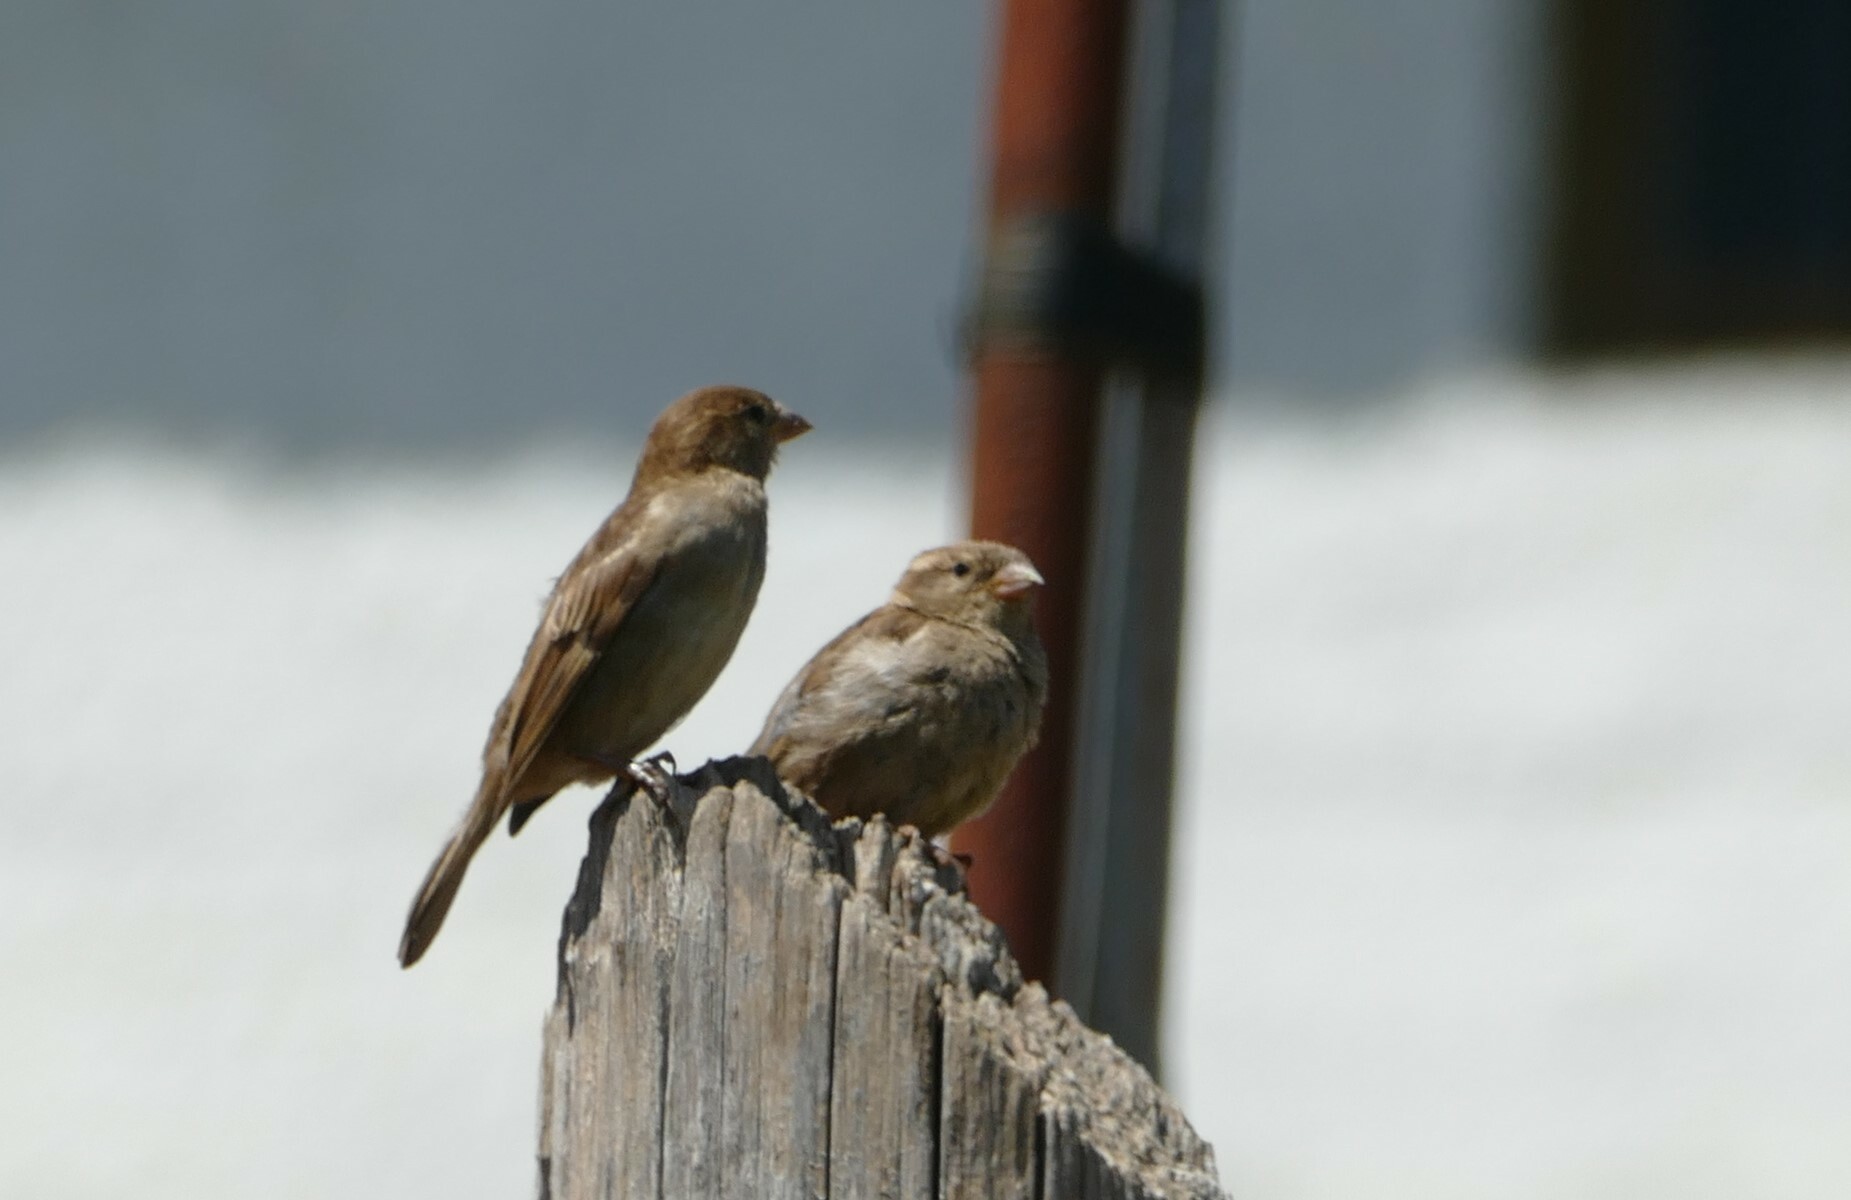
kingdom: Animalia
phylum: Chordata
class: Aves
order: Passeriformes
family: Passeridae
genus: Passer
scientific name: Passer domesticus
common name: House sparrow
